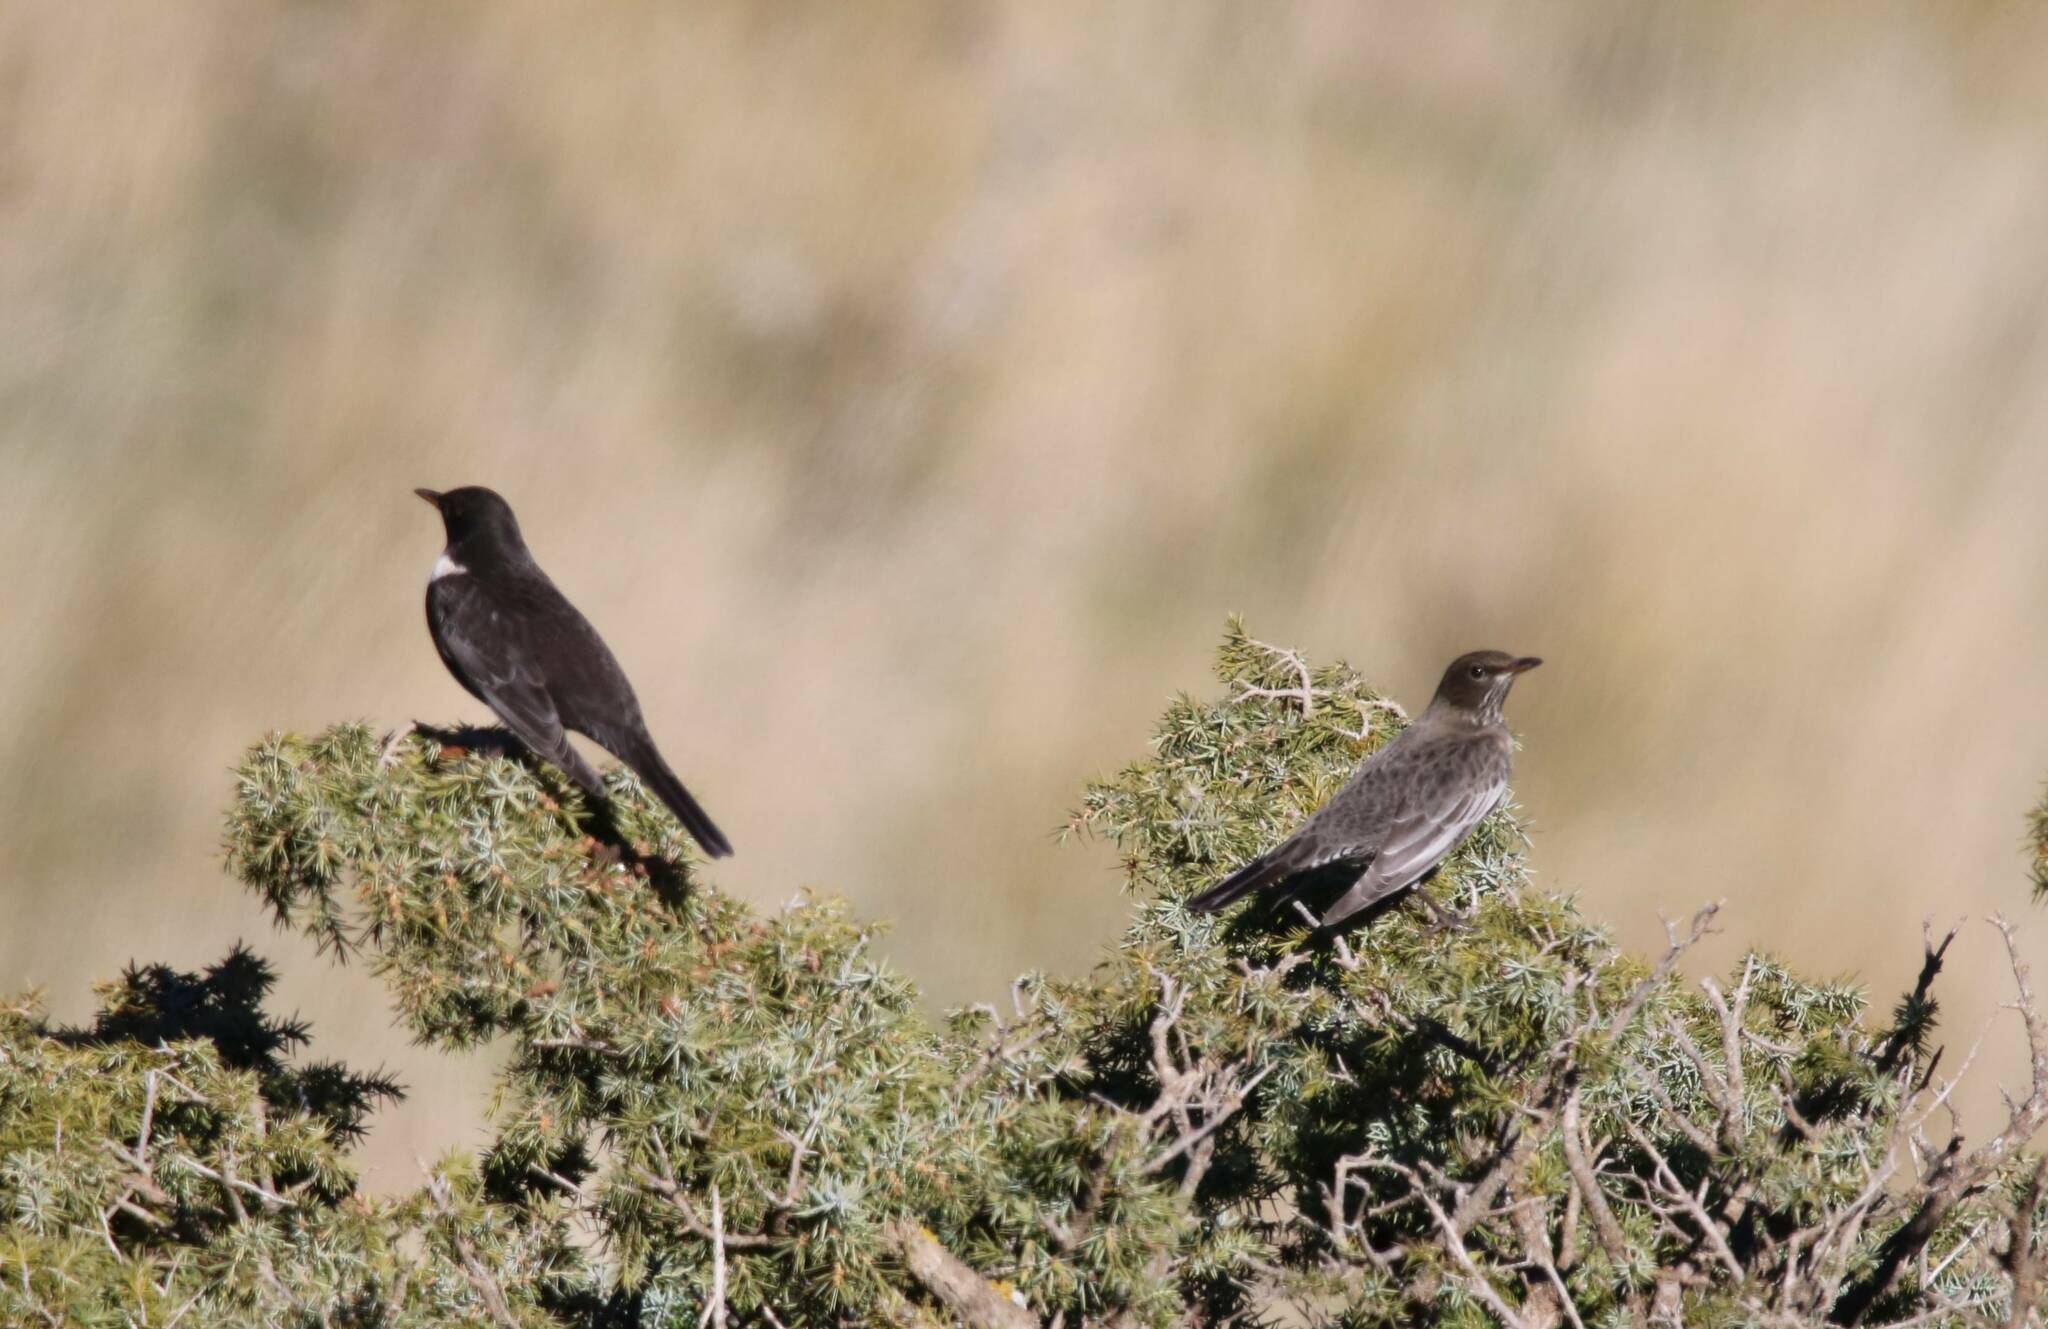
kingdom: Animalia
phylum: Chordata
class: Aves
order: Passeriformes
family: Turdidae
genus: Turdus
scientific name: Turdus torquatus
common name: Ring ouzel
